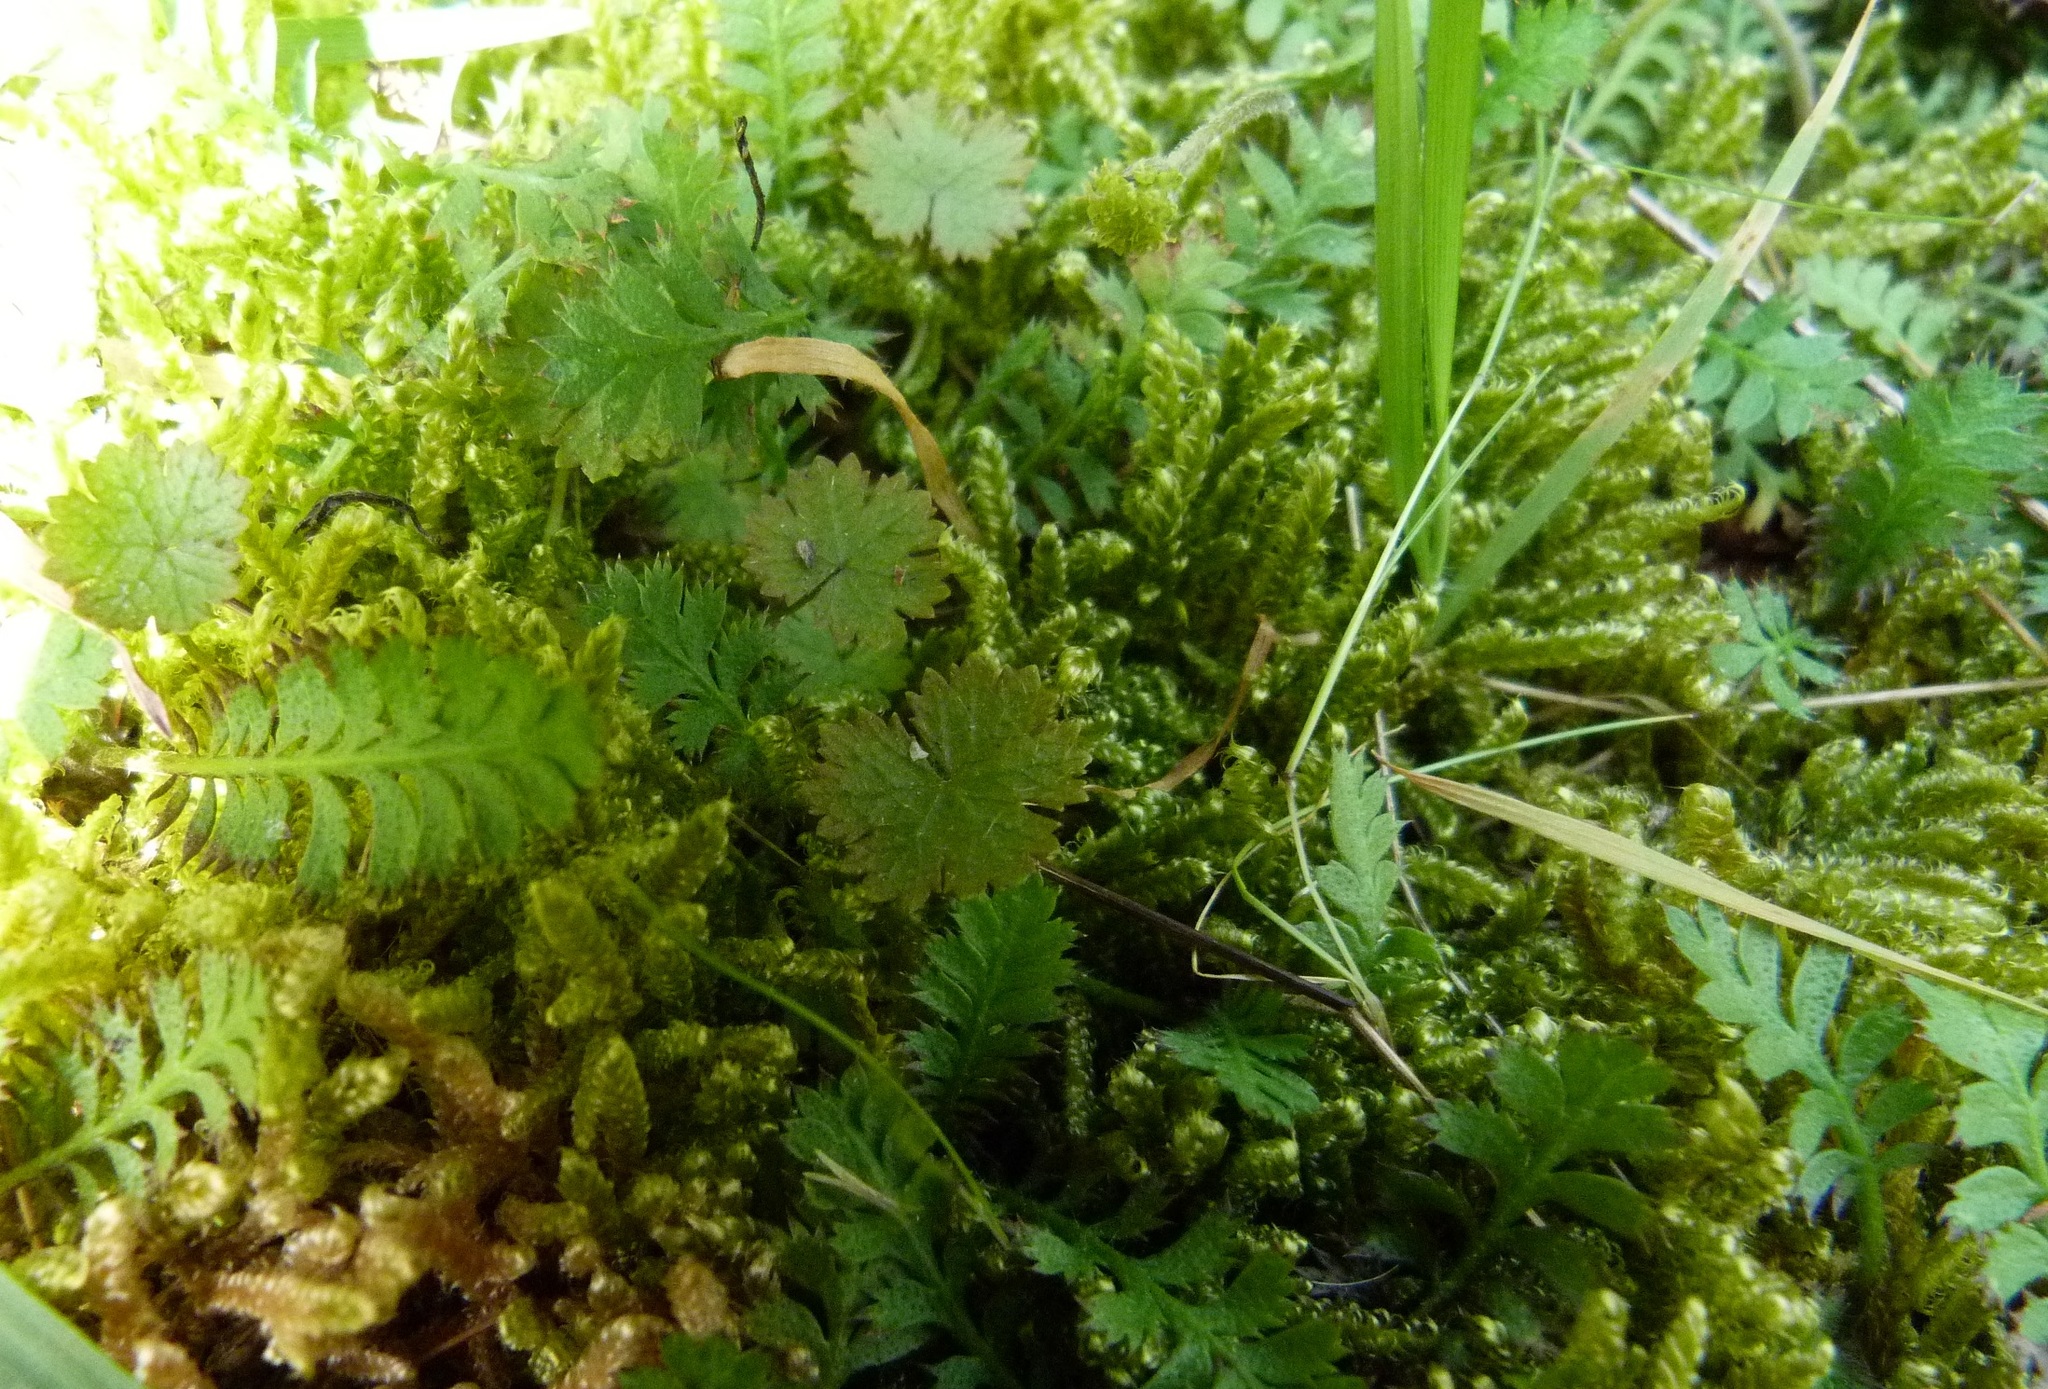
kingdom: Plantae
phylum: Tracheophyta
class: Magnoliopsida
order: Apiales
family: Araliaceae
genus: Hydrocotyle
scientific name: Hydrocotyle moschata
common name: Hairy pennywort
